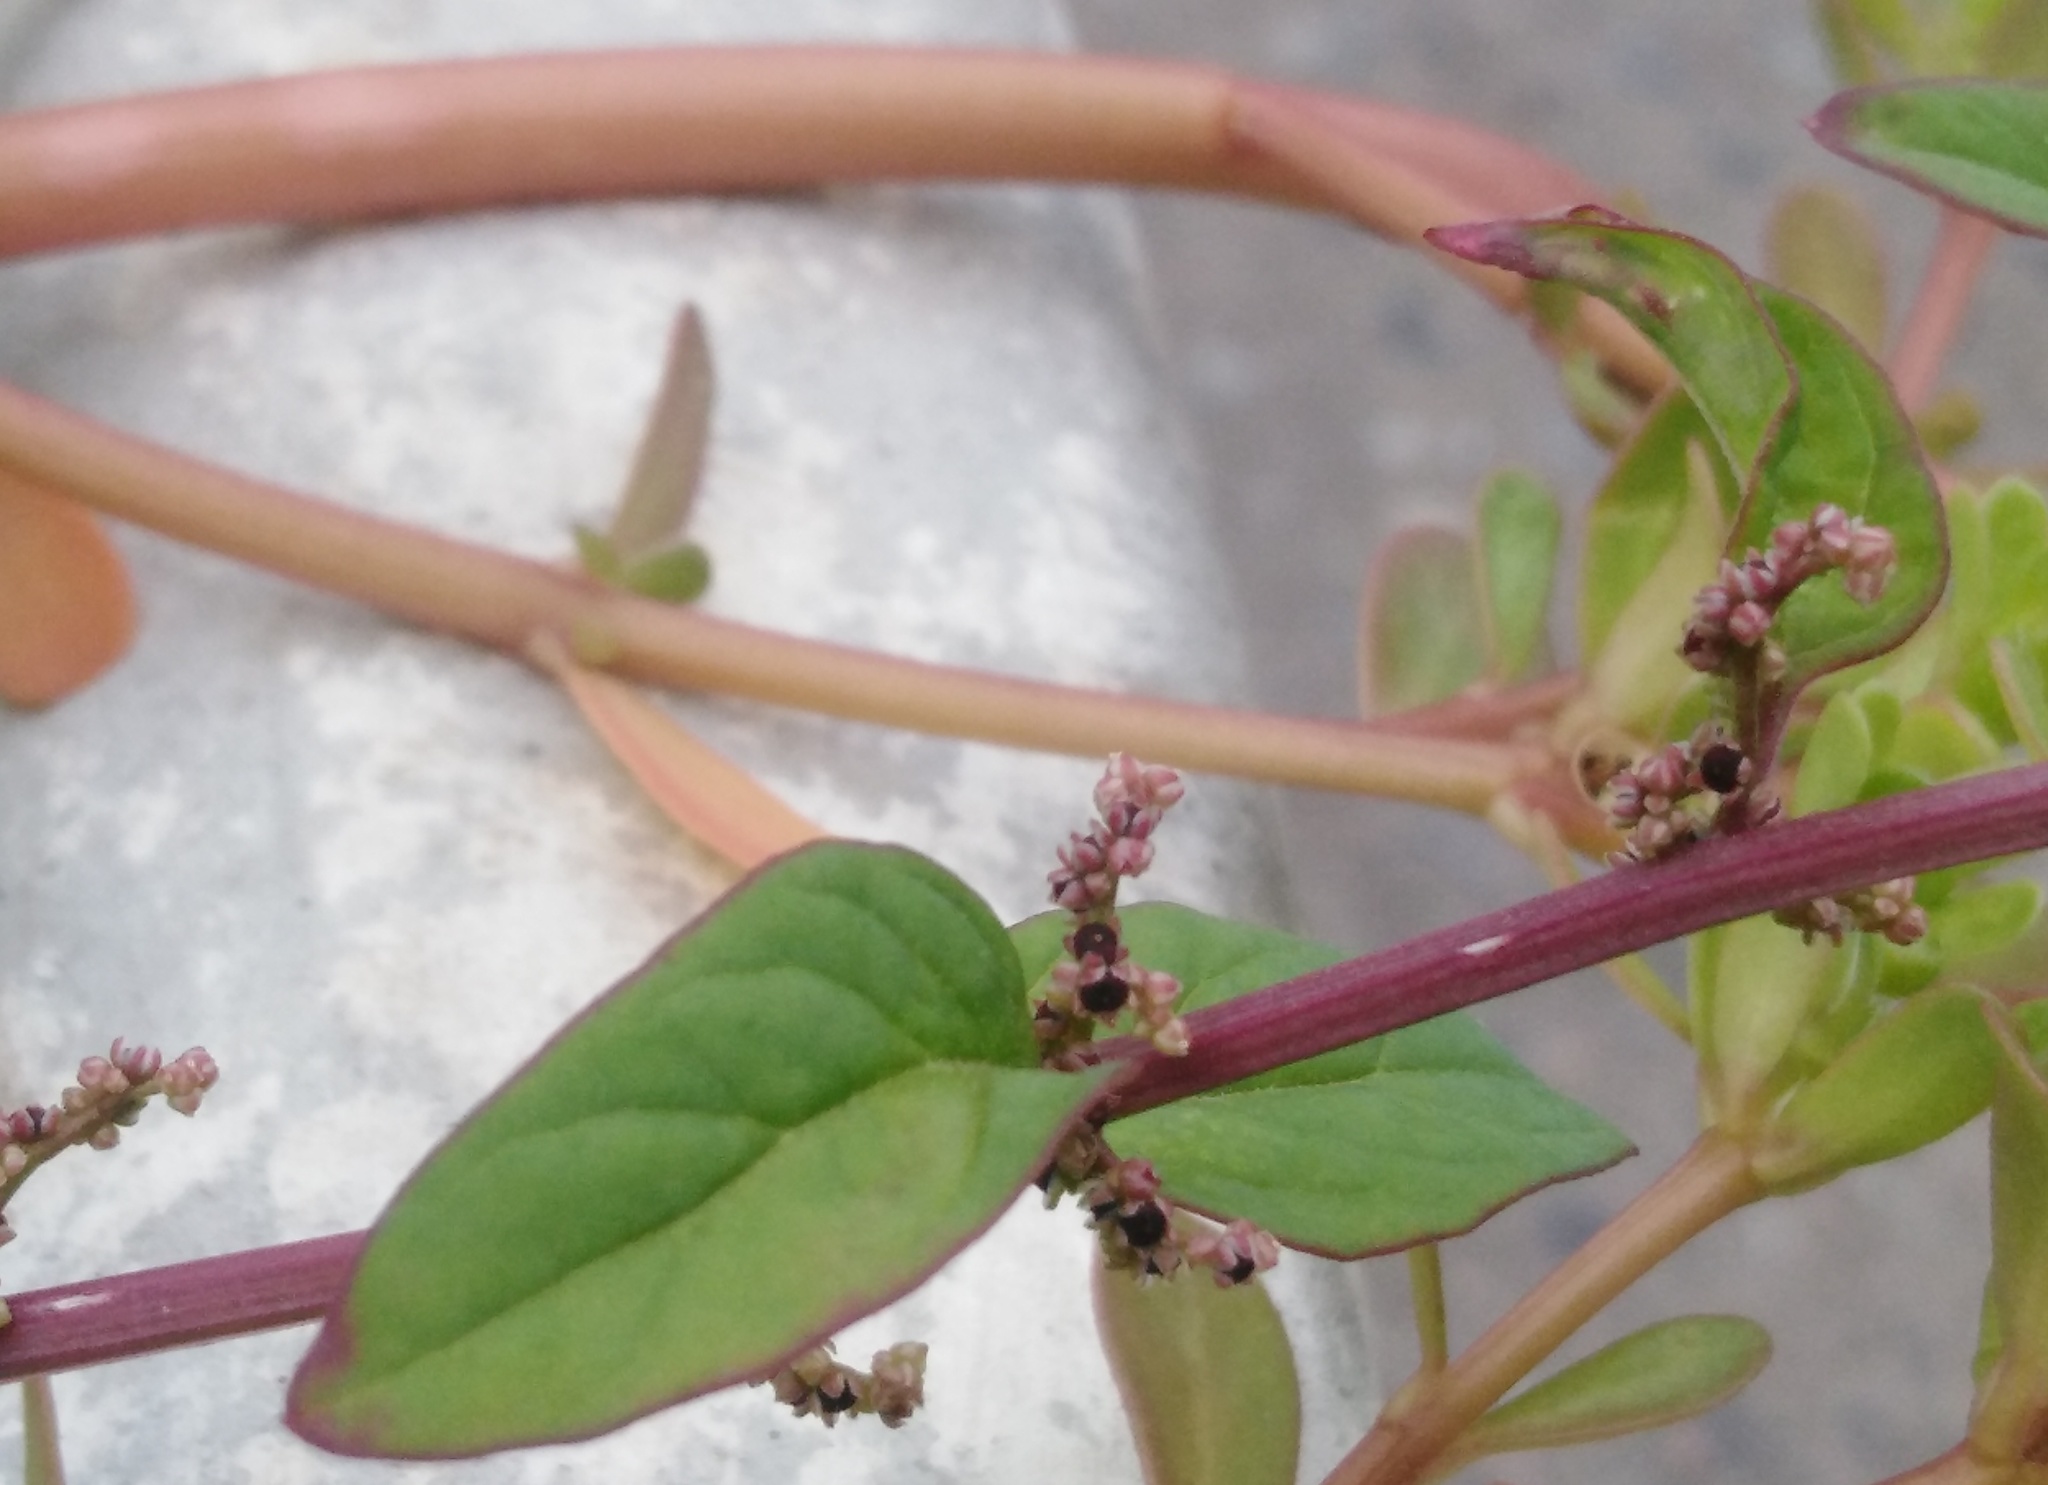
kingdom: Plantae
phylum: Tracheophyta
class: Magnoliopsida
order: Caryophyllales
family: Amaranthaceae
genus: Lipandra
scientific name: Lipandra polysperma
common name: Many-seed goosefoot
